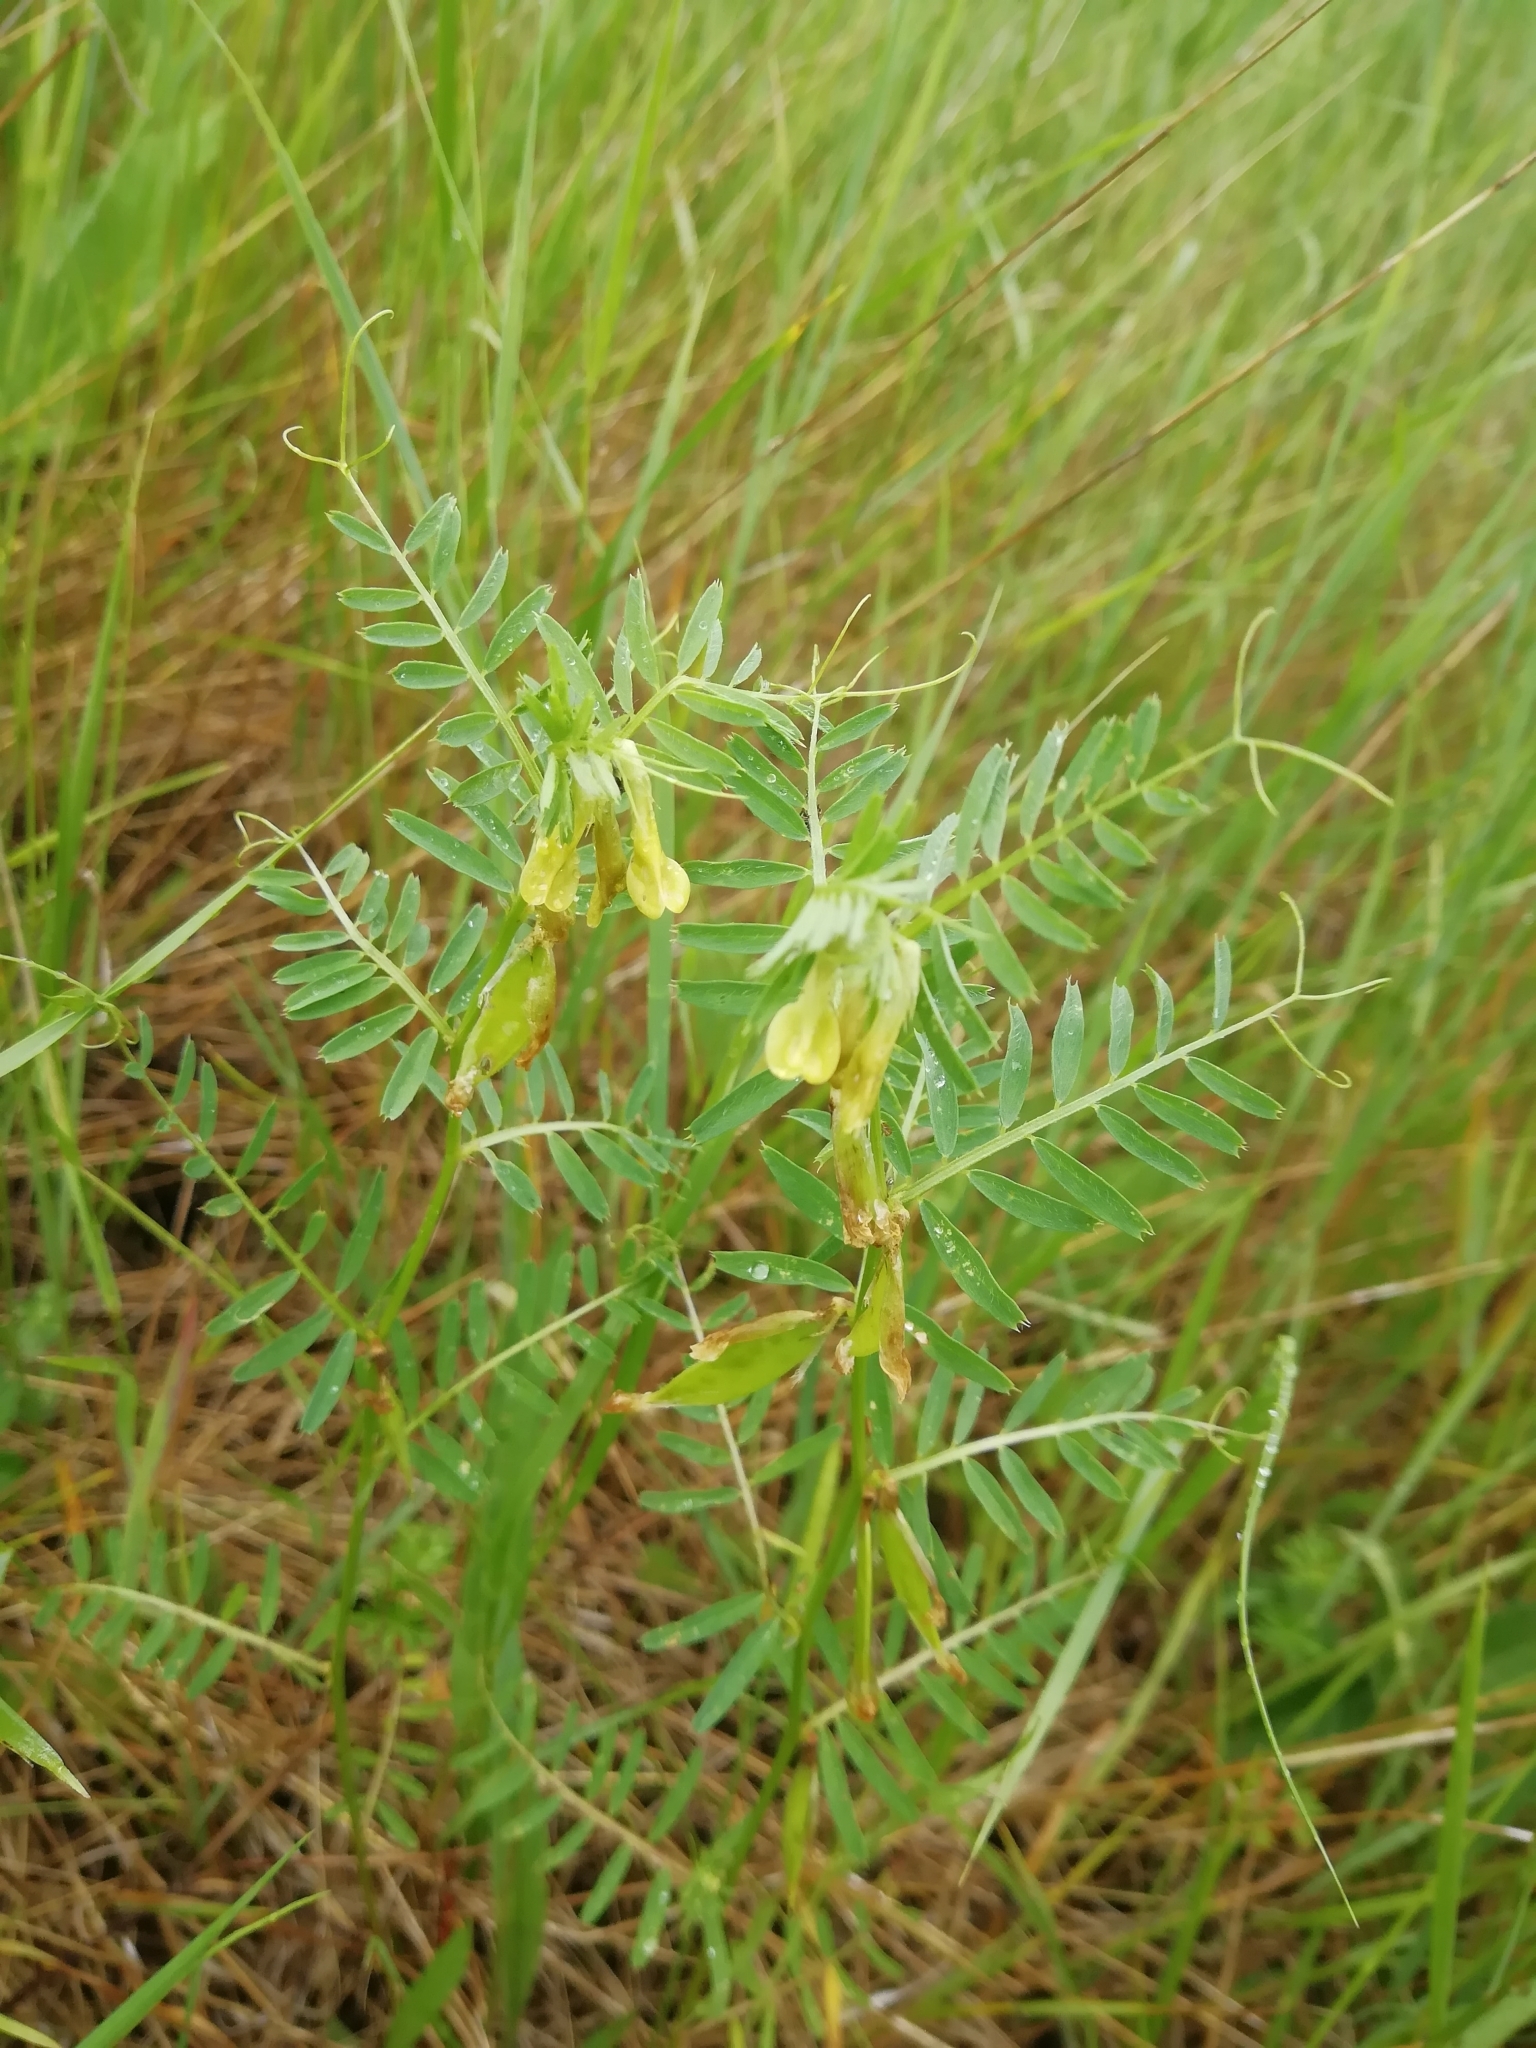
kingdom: Plantae
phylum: Tracheophyta
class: Magnoliopsida
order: Fabales
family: Fabaceae
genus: Vicia
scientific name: Vicia ciliatula
